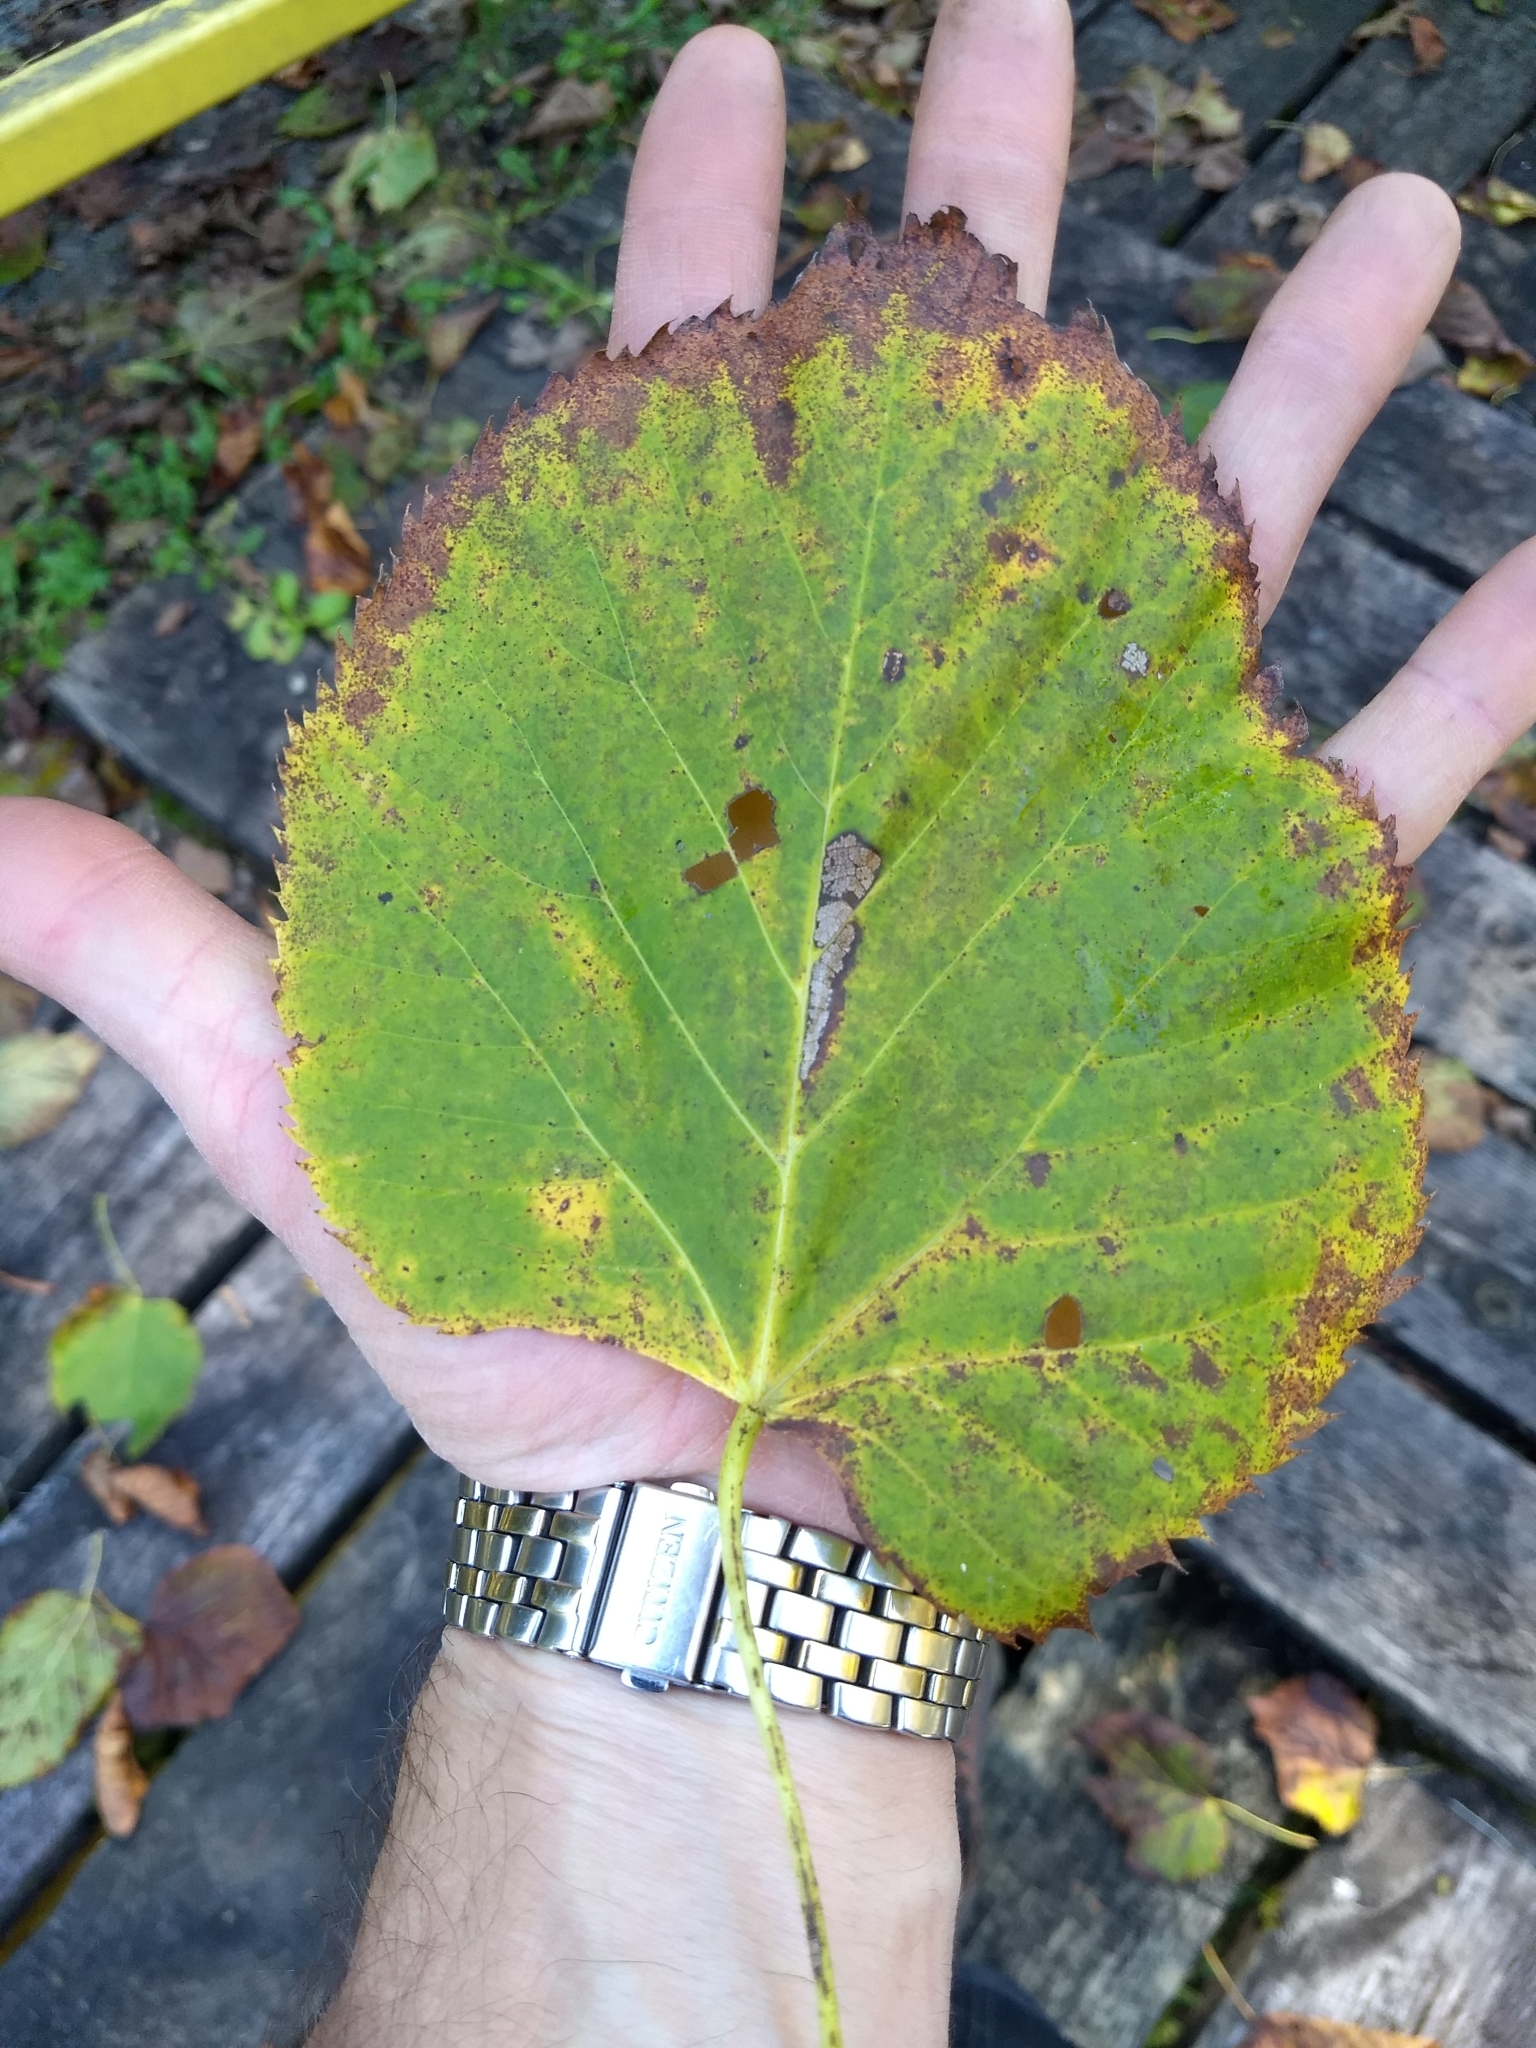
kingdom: Plantae
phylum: Tracheophyta
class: Magnoliopsida
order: Malvales
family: Malvaceae
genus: Tilia
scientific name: Tilia americana
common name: Basswood
